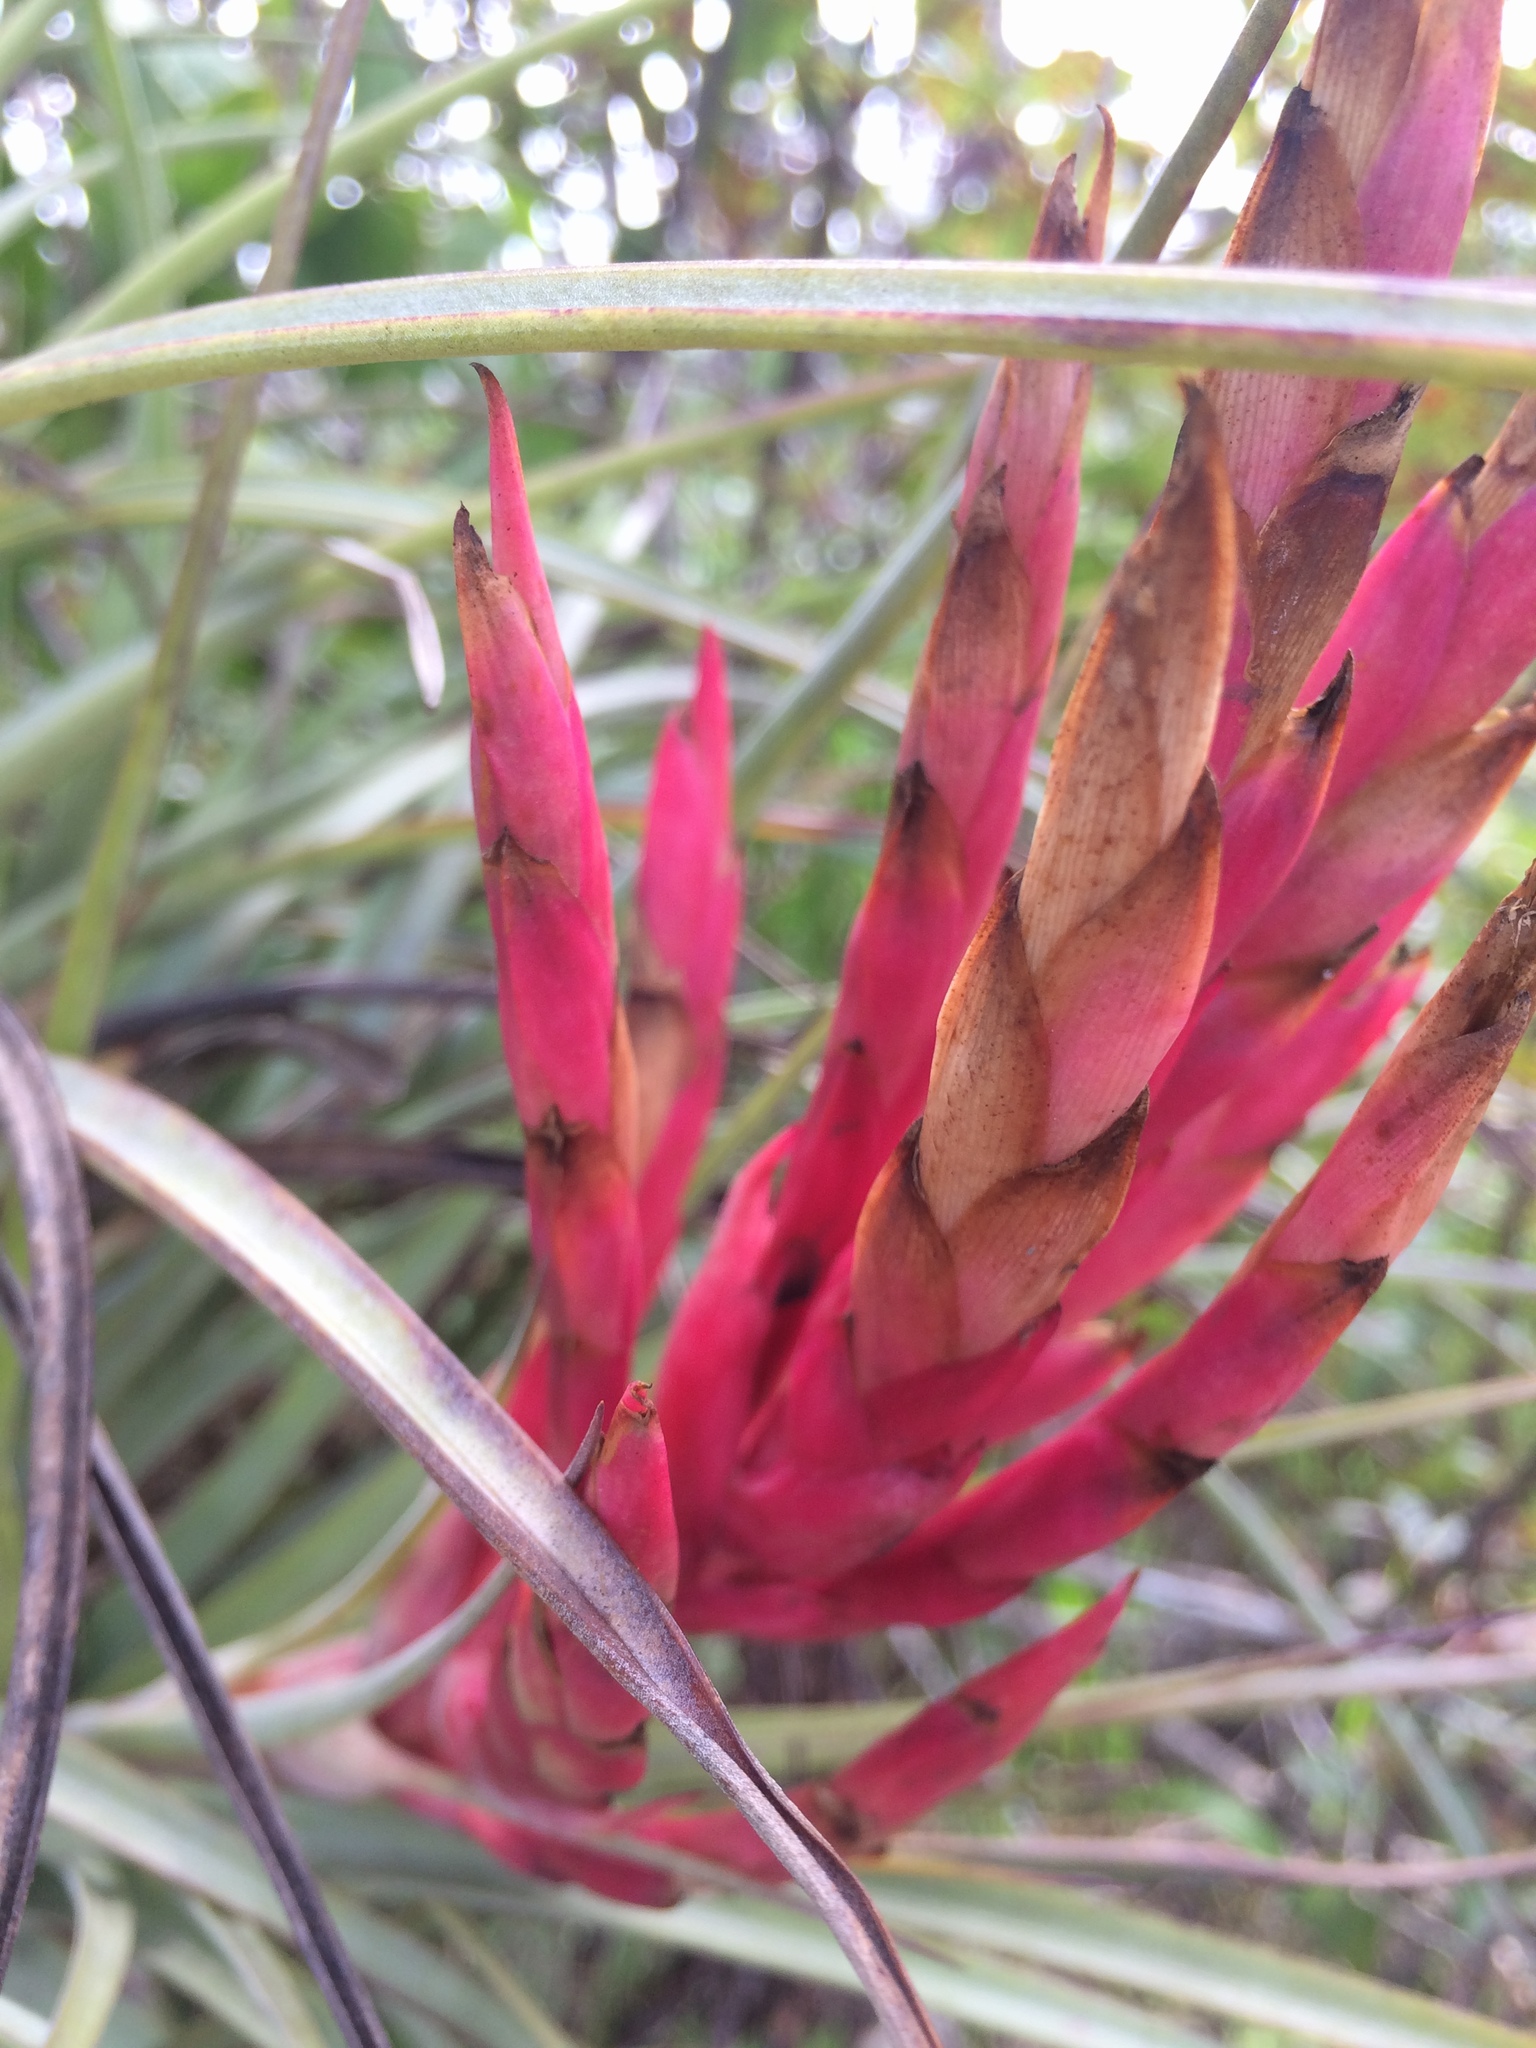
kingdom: Plantae
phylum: Tracheophyta
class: Liliopsida
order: Poales
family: Bromeliaceae
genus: Tillandsia
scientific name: Tillandsia fasciculata
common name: Giant airplant
